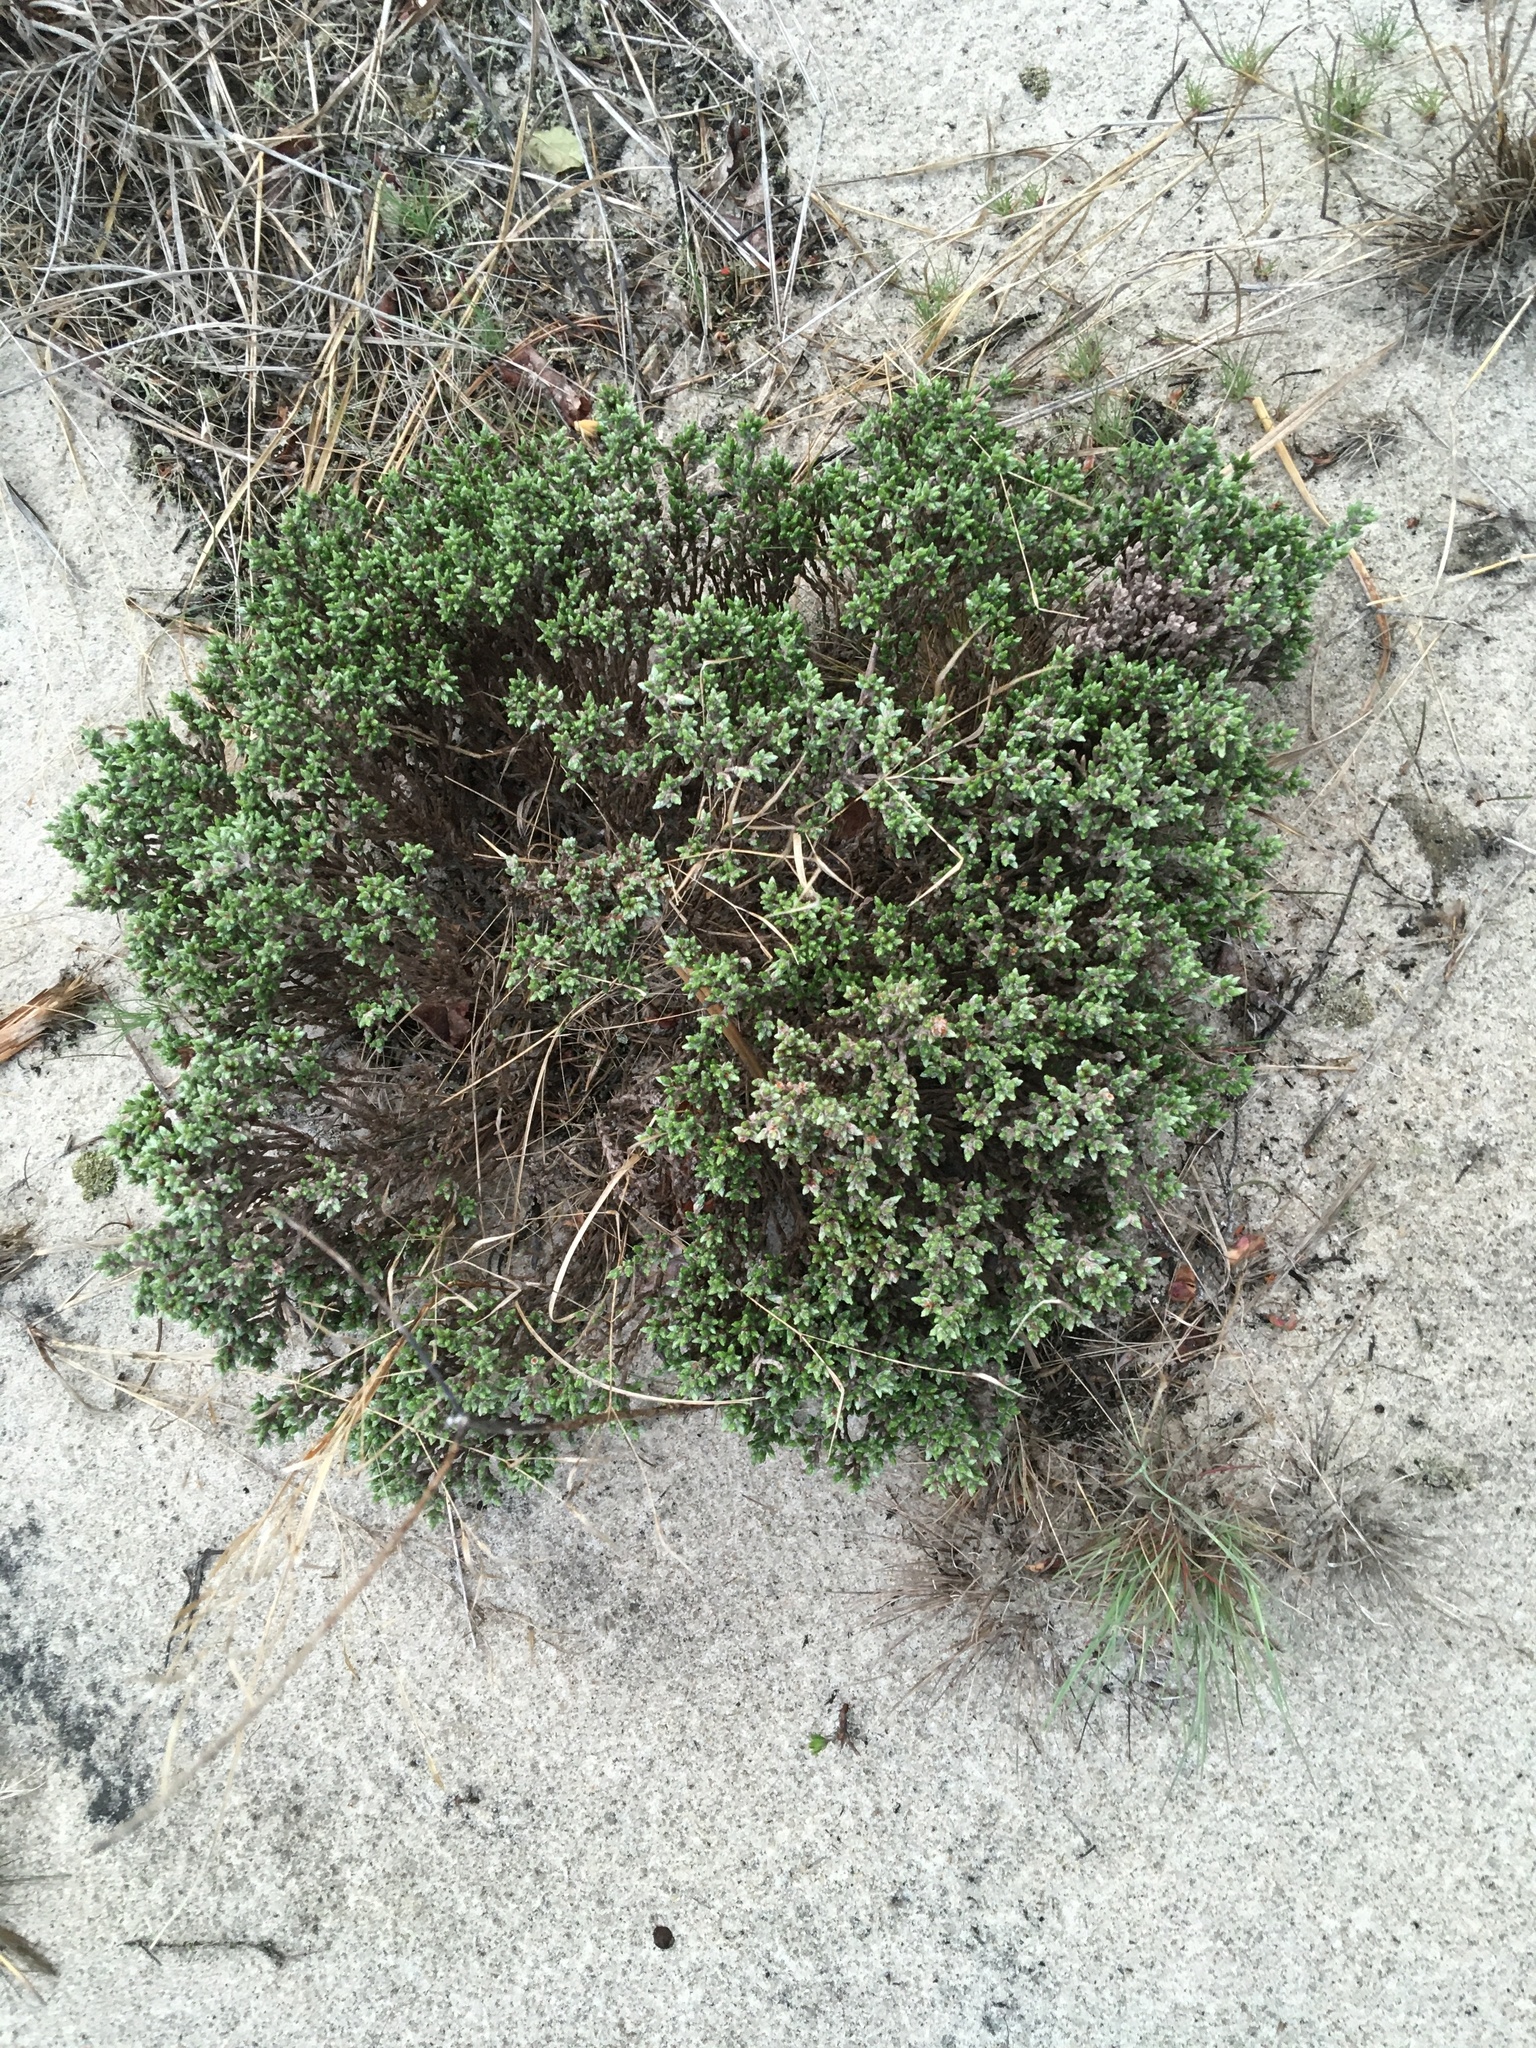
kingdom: Plantae
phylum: Tracheophyta
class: Magnoliopsida
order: Malvales
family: Cistaceae
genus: Hudsonia
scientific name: Hudsonia tomentosa
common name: Beach-heath
